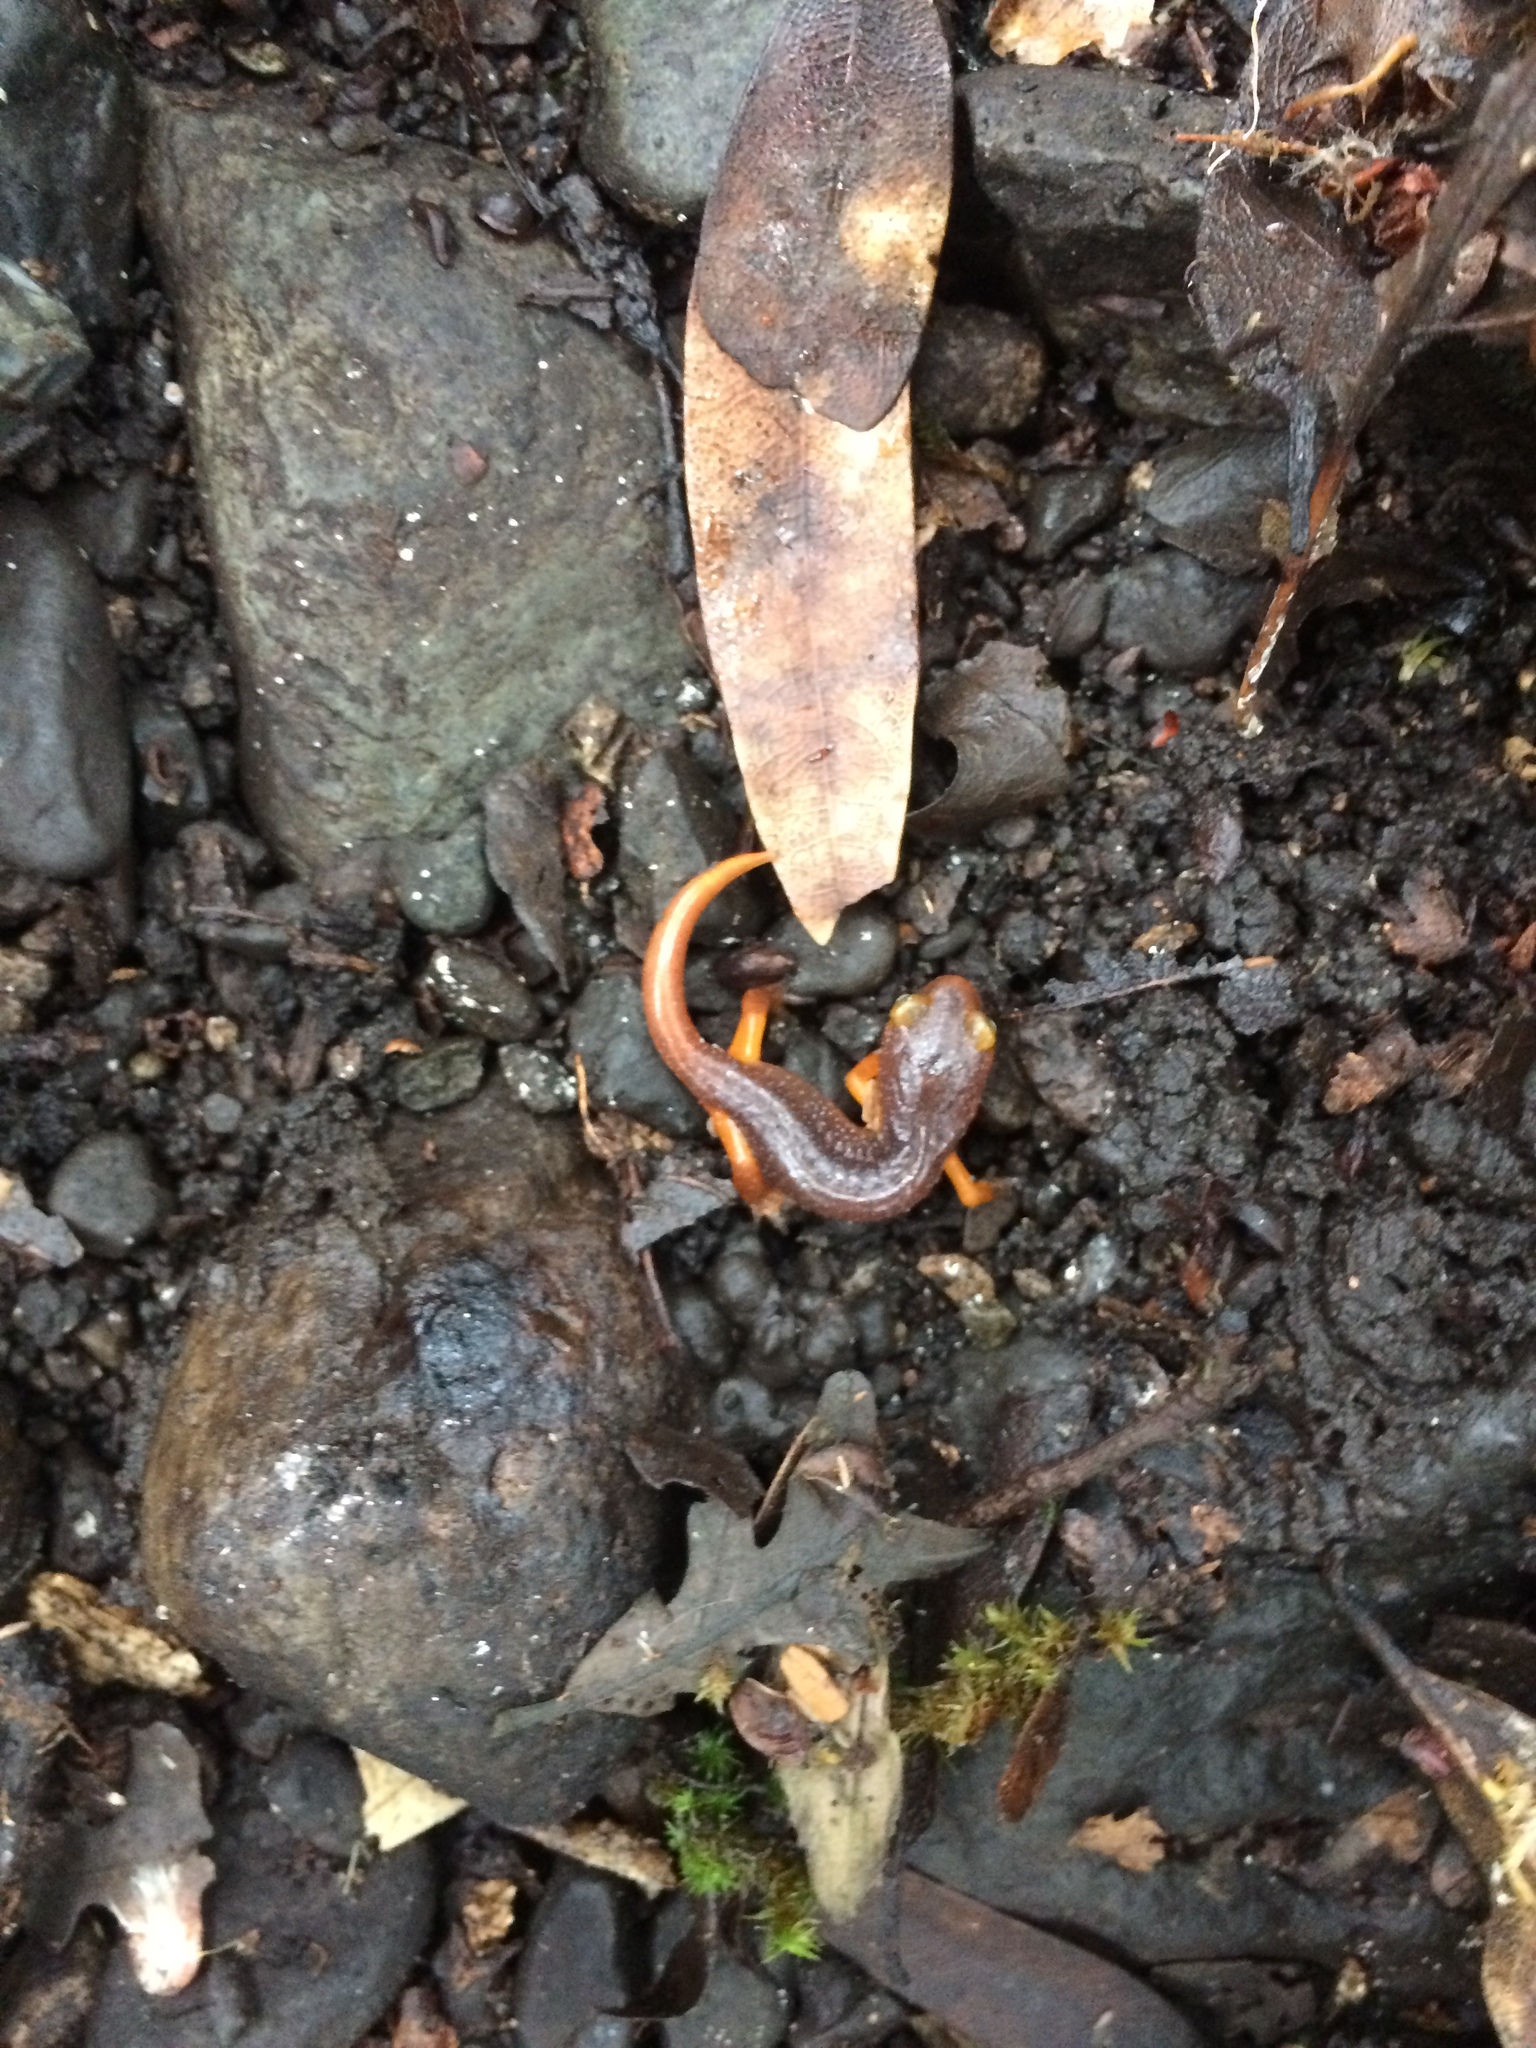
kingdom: Animalia
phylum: Chordata
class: Amphibia
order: Caudata
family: Plethodontidae
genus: Ensatina
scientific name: Ensatina eschscholtzii
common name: Ensatina
